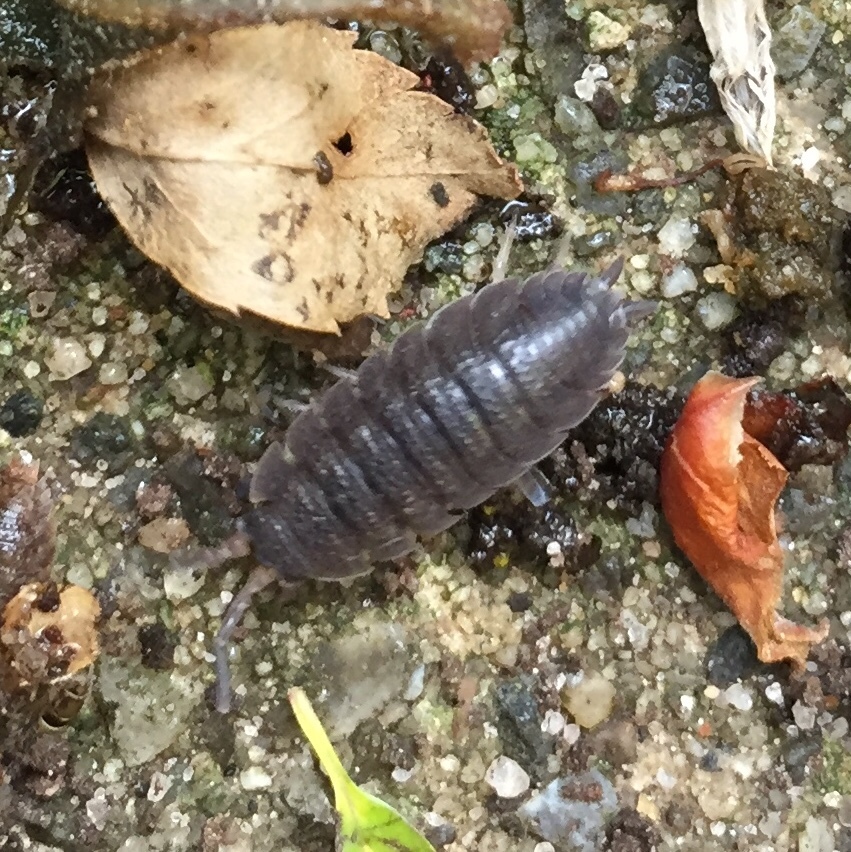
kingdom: Animalia
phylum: Arthropoda
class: Malacostraca
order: Isopoda
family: Porcellionidae
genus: Porcellio
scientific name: Porcellio scaber
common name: Common rough woodlouse
